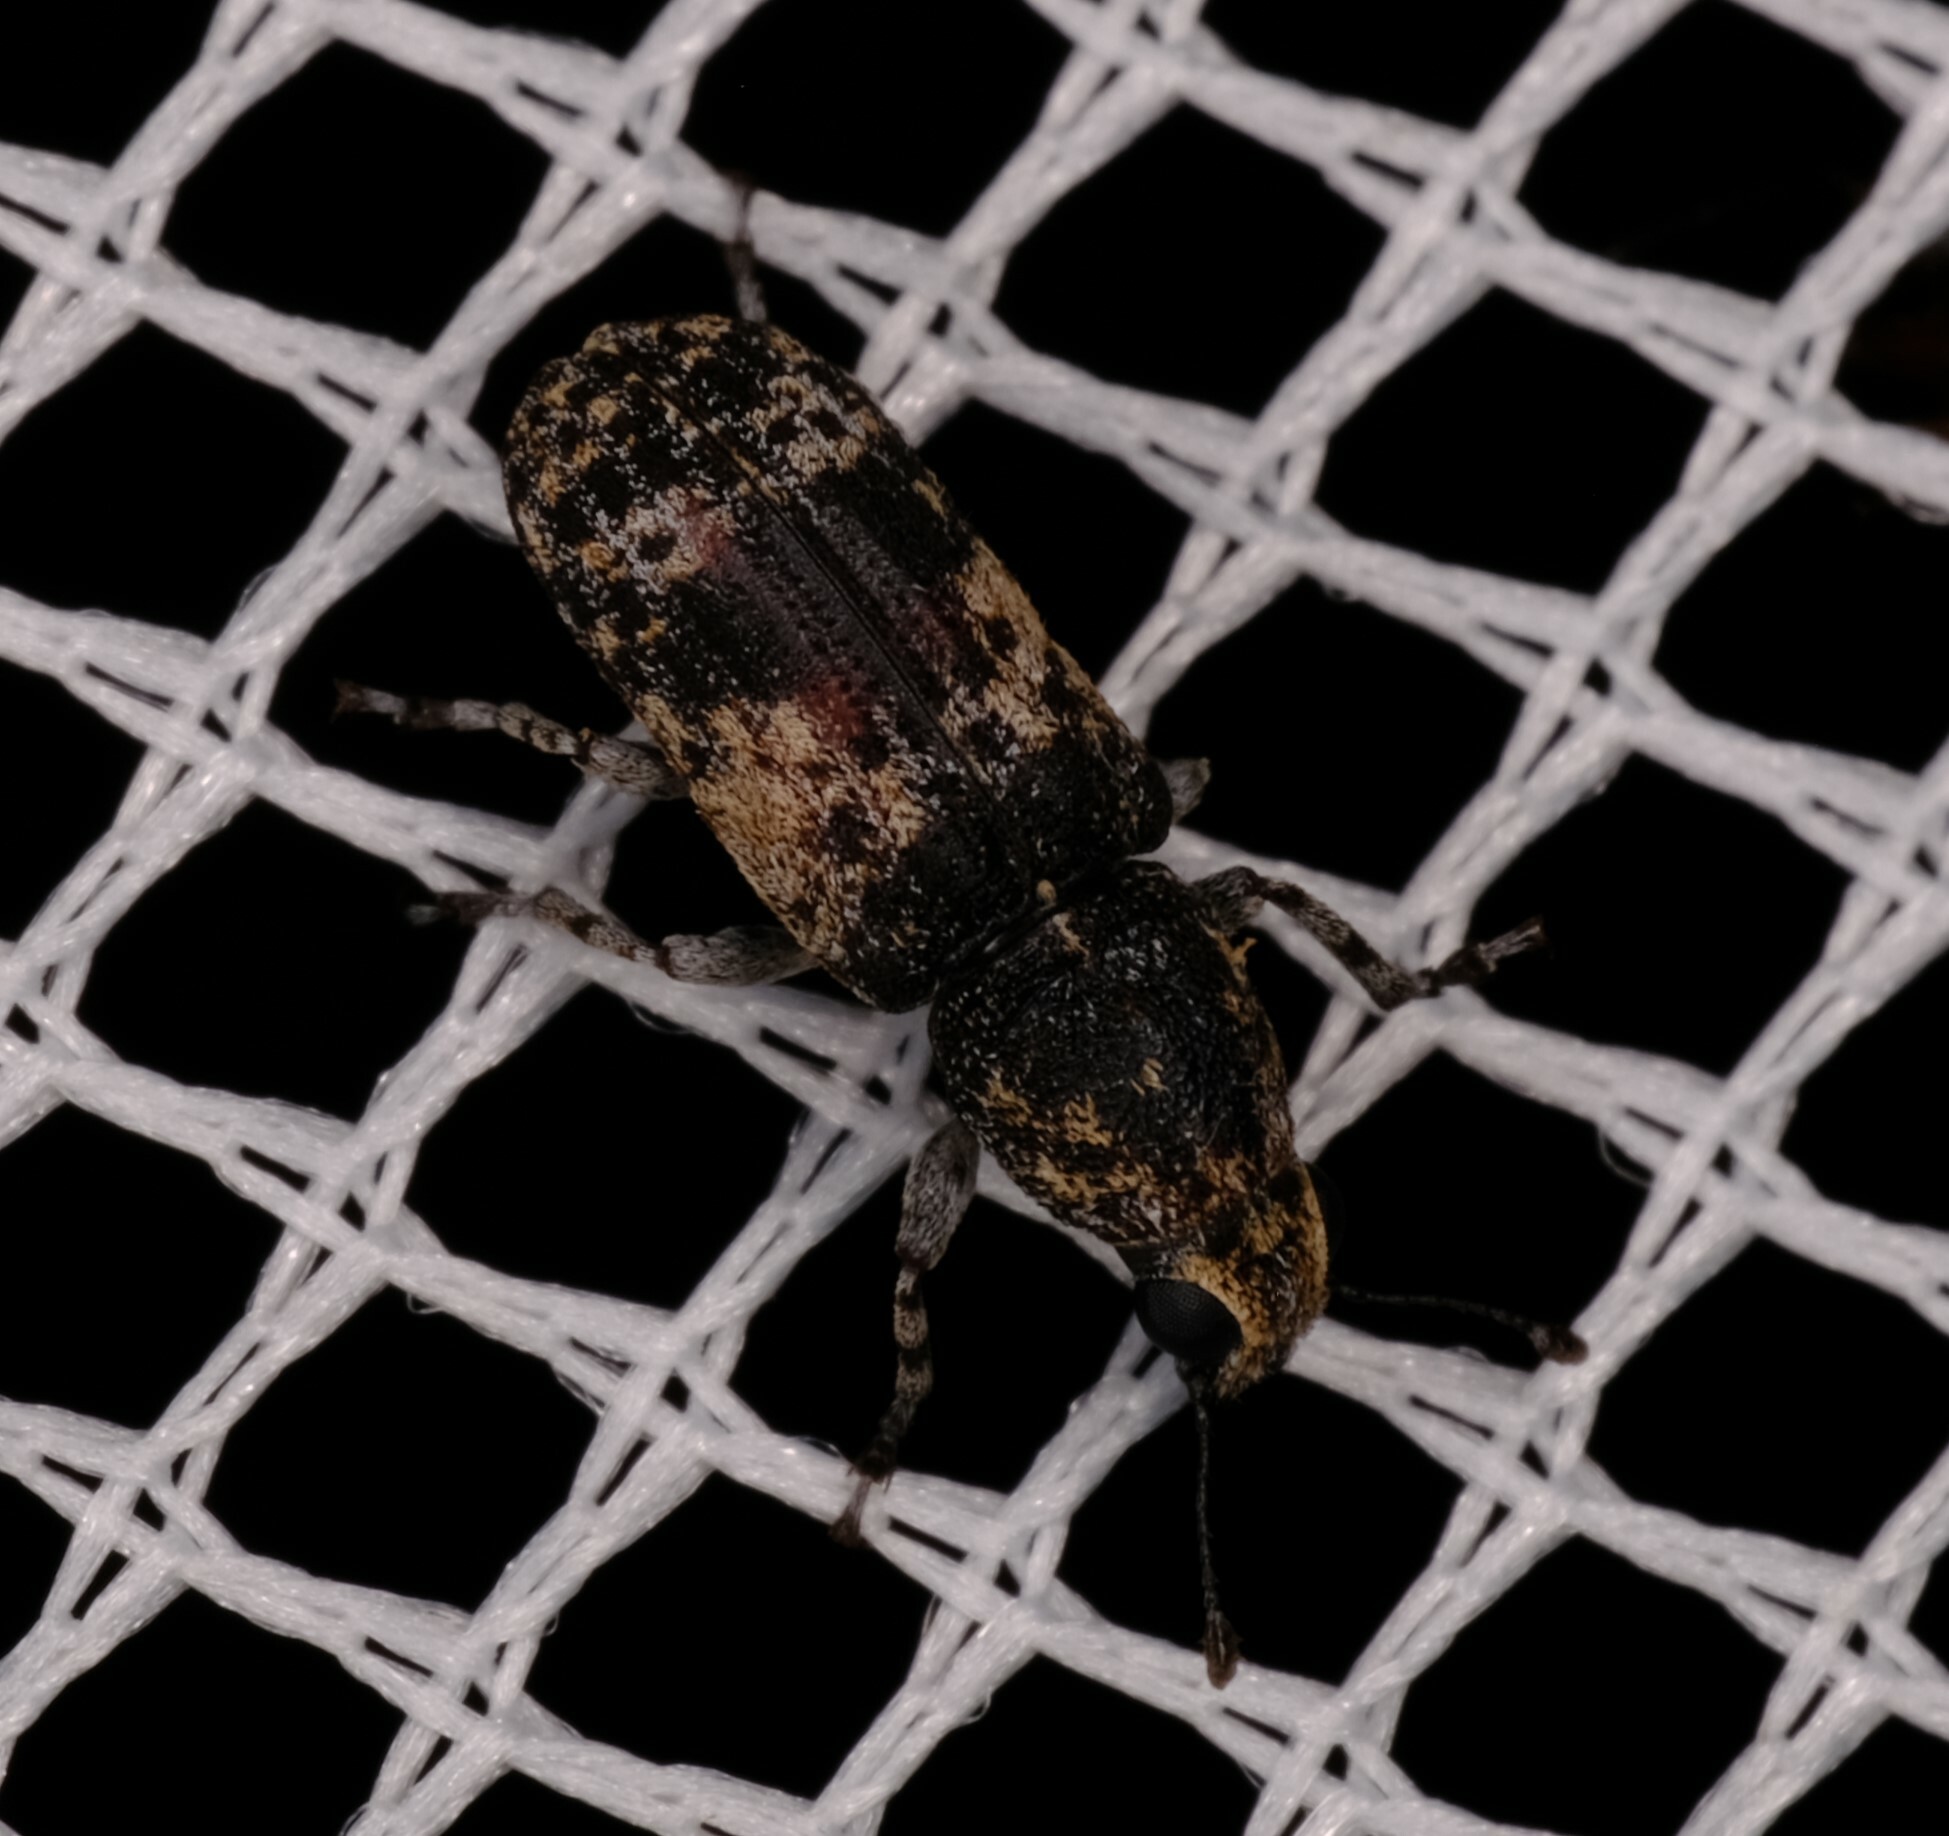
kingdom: Animalia
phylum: Arthropoda
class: Insecta
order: Coleoptera
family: Anthribidae
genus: Ecelonerus
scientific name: Ecelonerus subfasciatus
